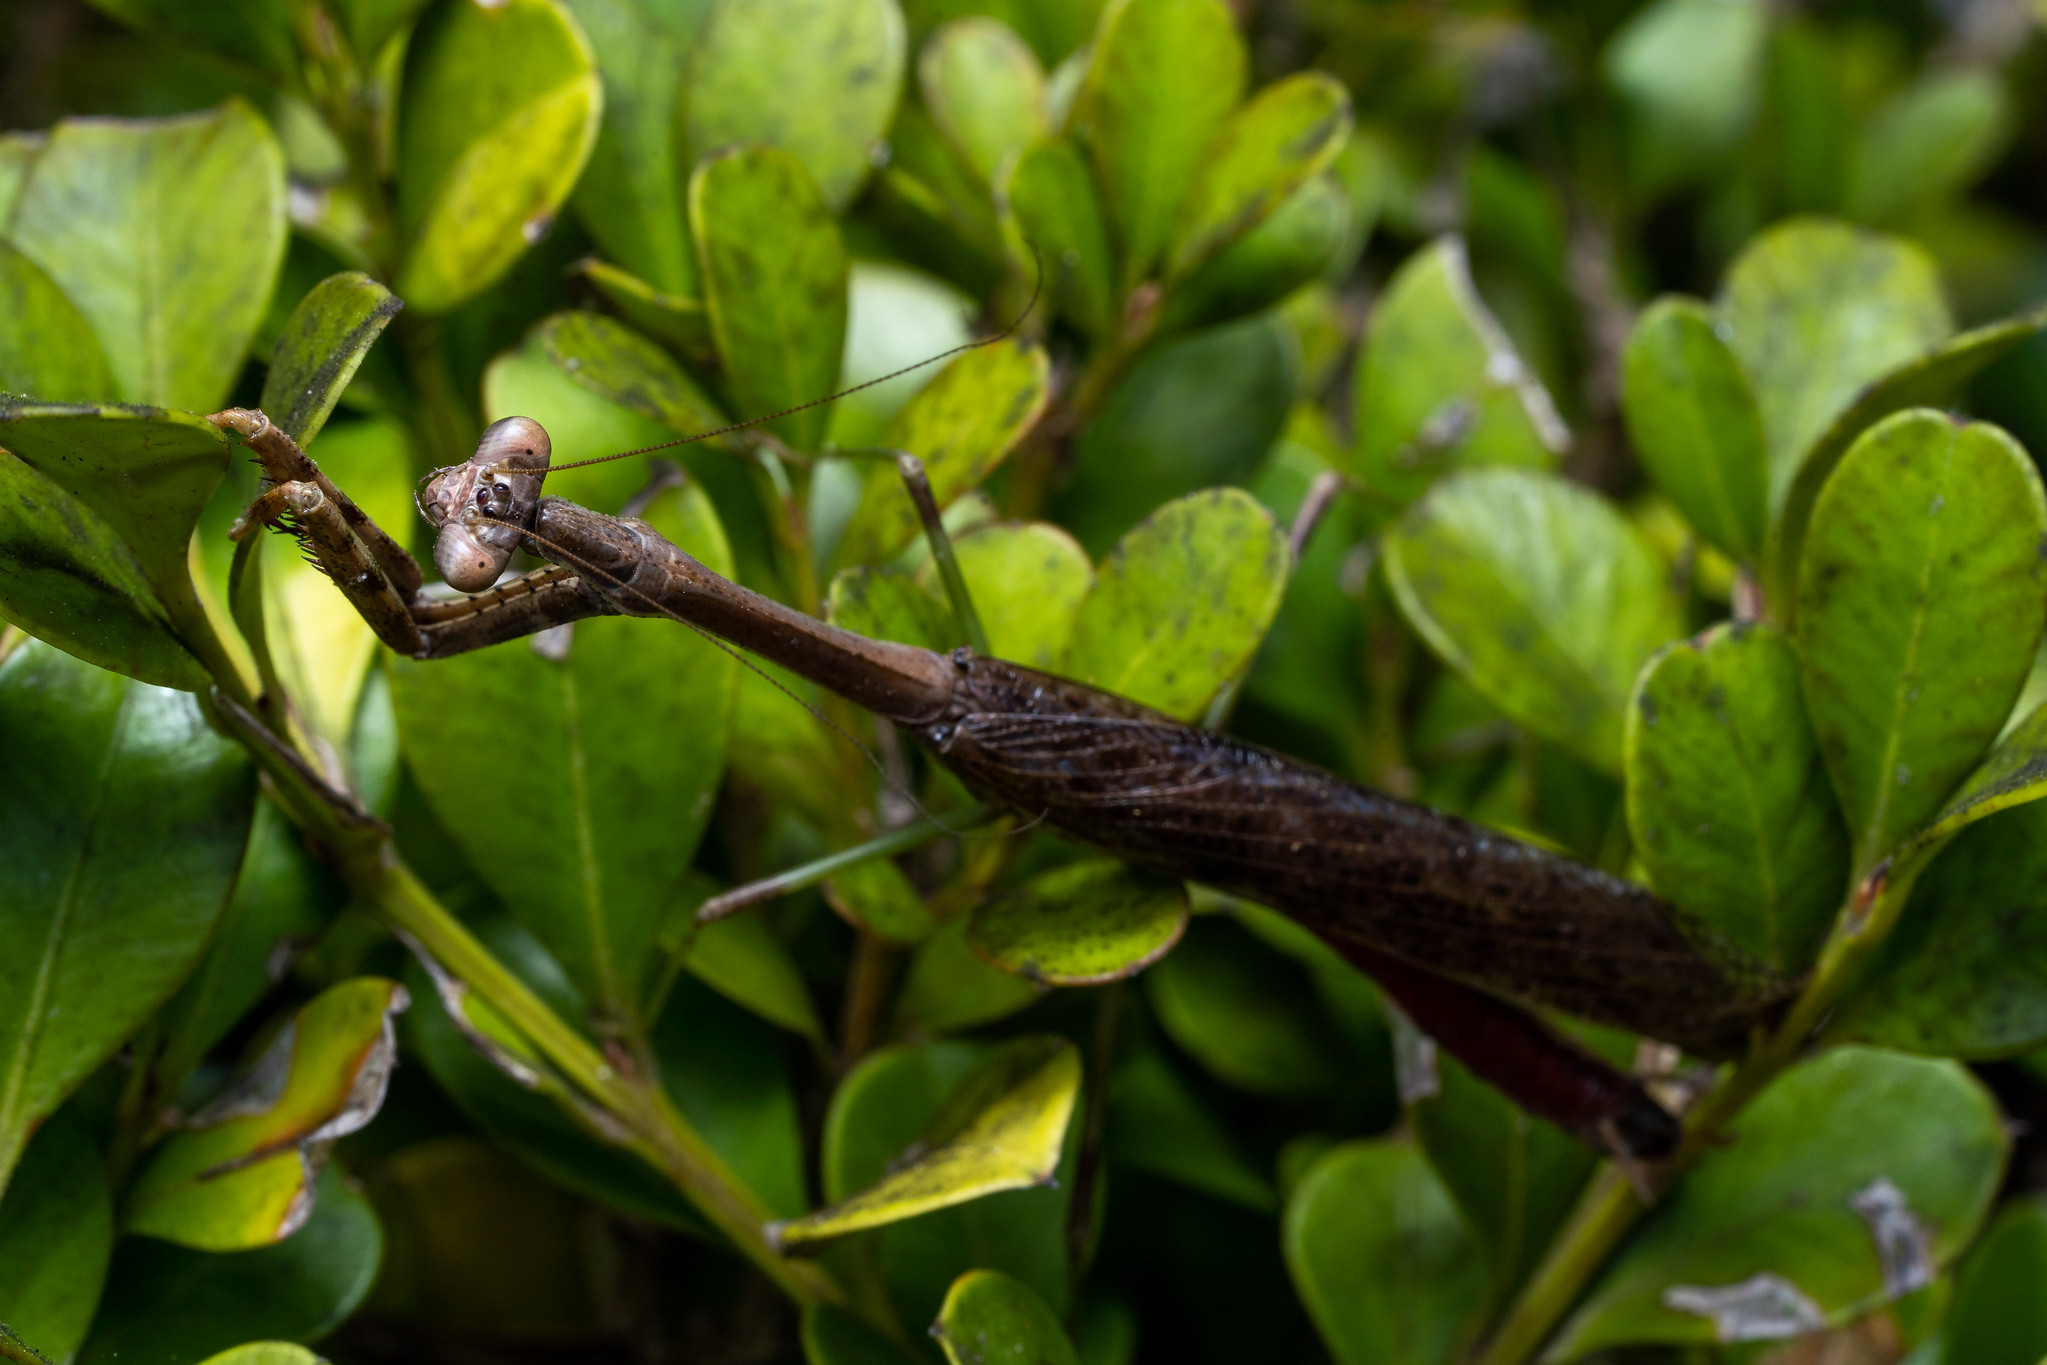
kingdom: Animalia
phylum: Arthropoda
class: Insecta
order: Mantodea
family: Mantidae
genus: Stagmomantis
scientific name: Stagmomantis carolina
